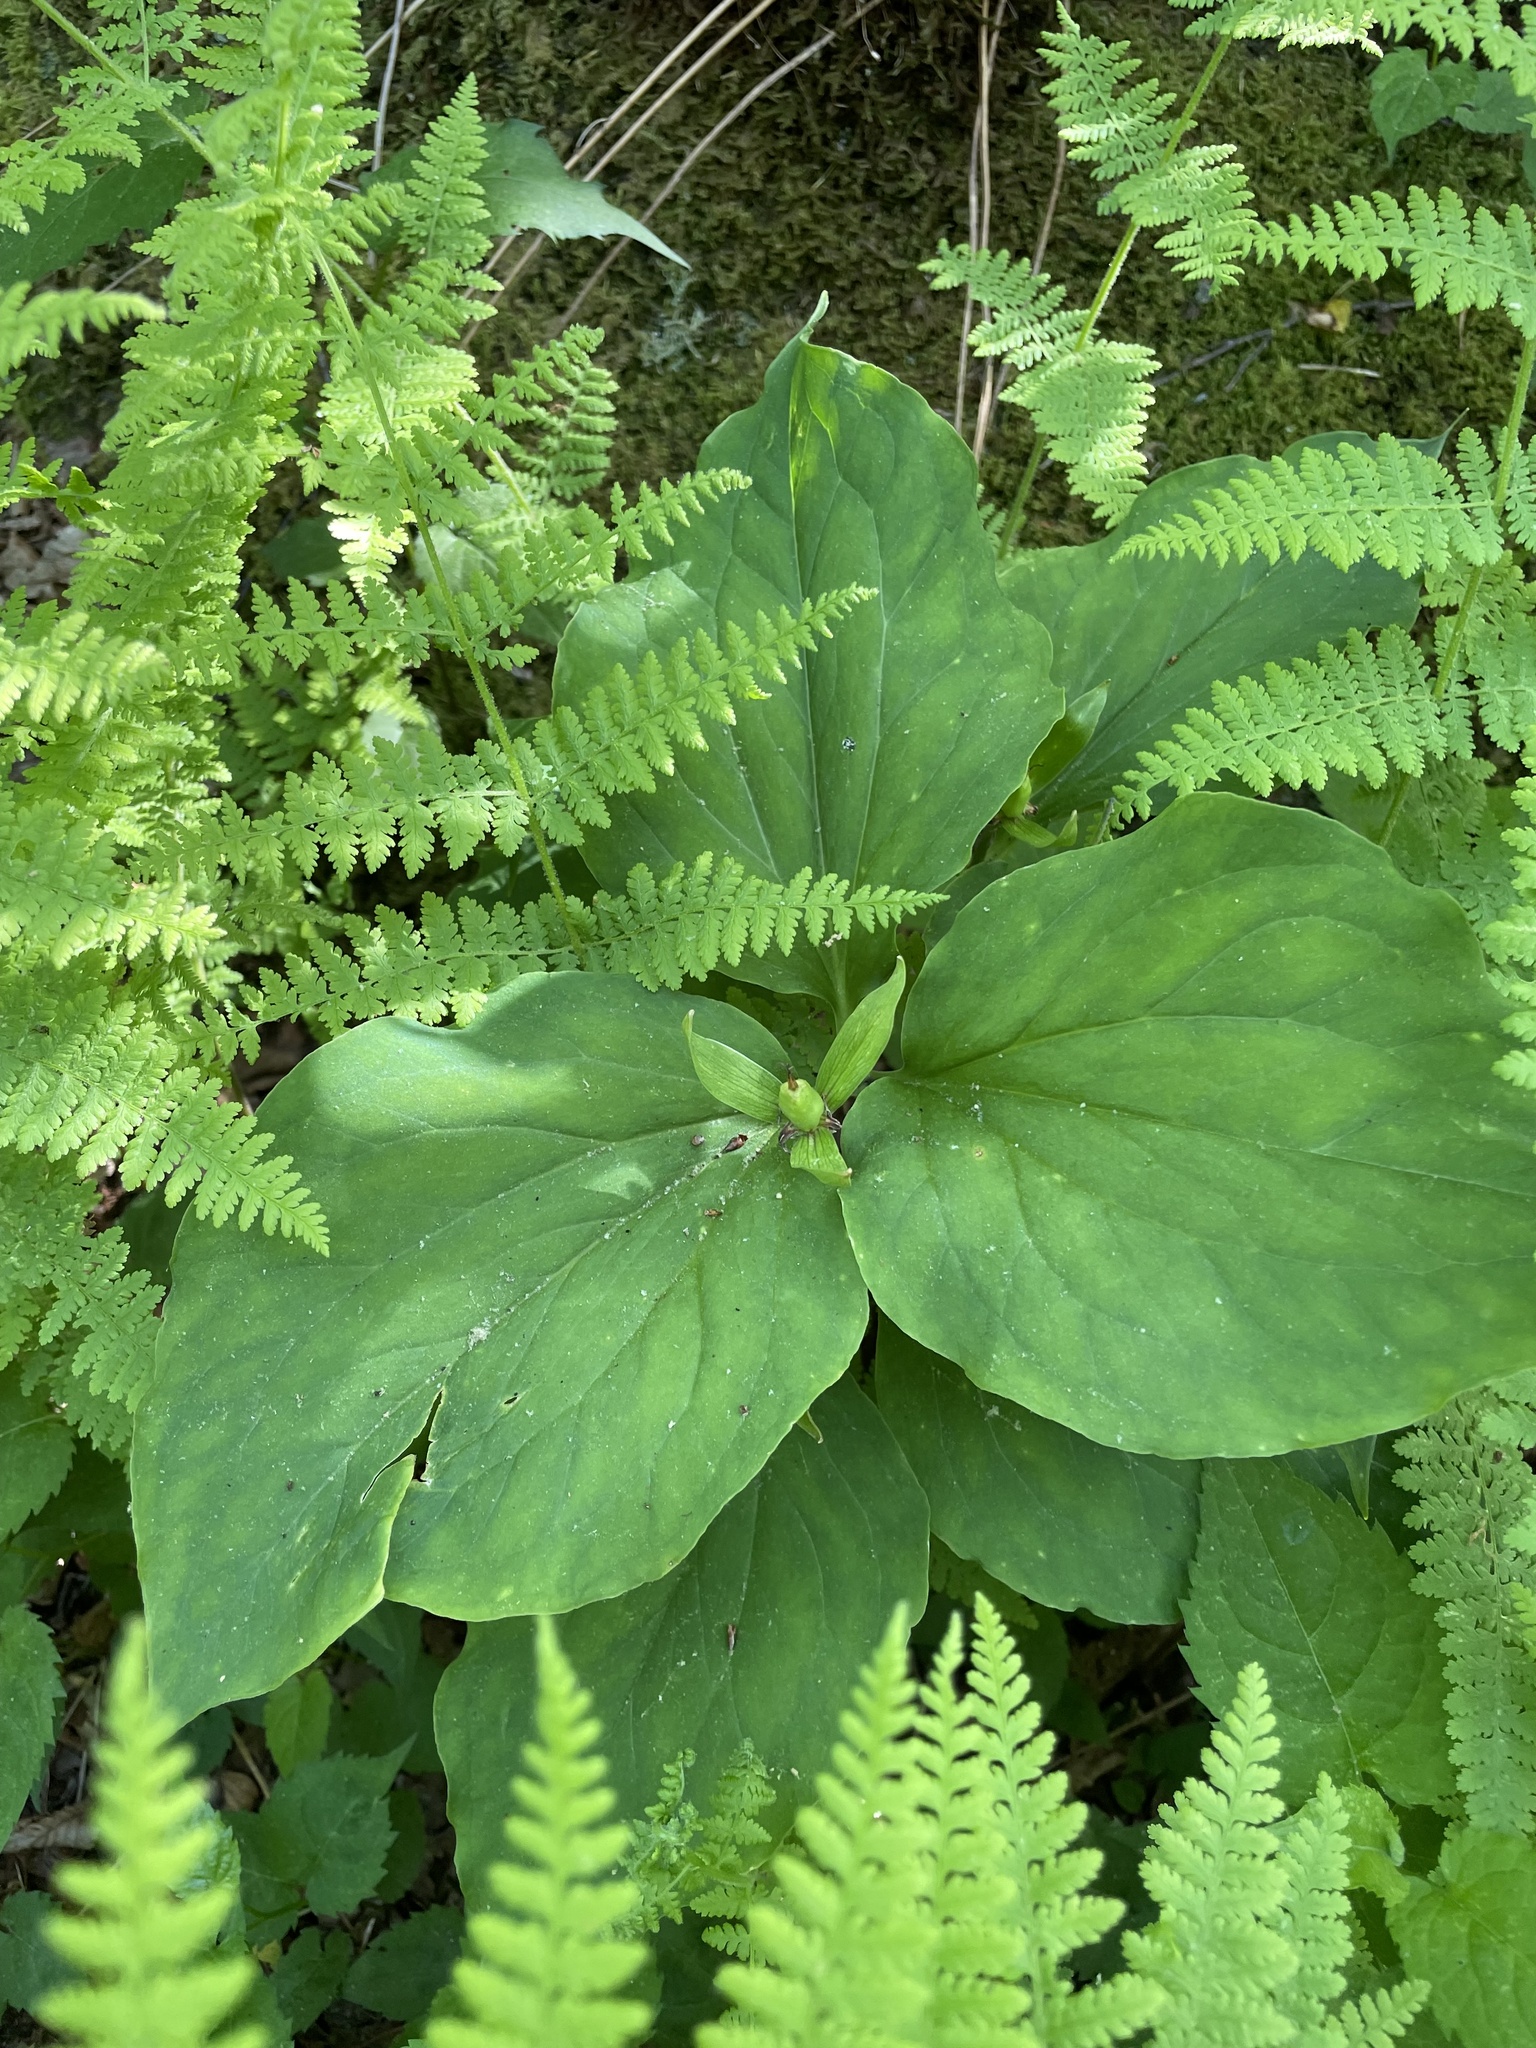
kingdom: Plantae
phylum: Tracheophyta
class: Liliopsida
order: Liliales
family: Melanthiaceae
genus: Trillium
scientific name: Trillium undulatum
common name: Paint trillium
